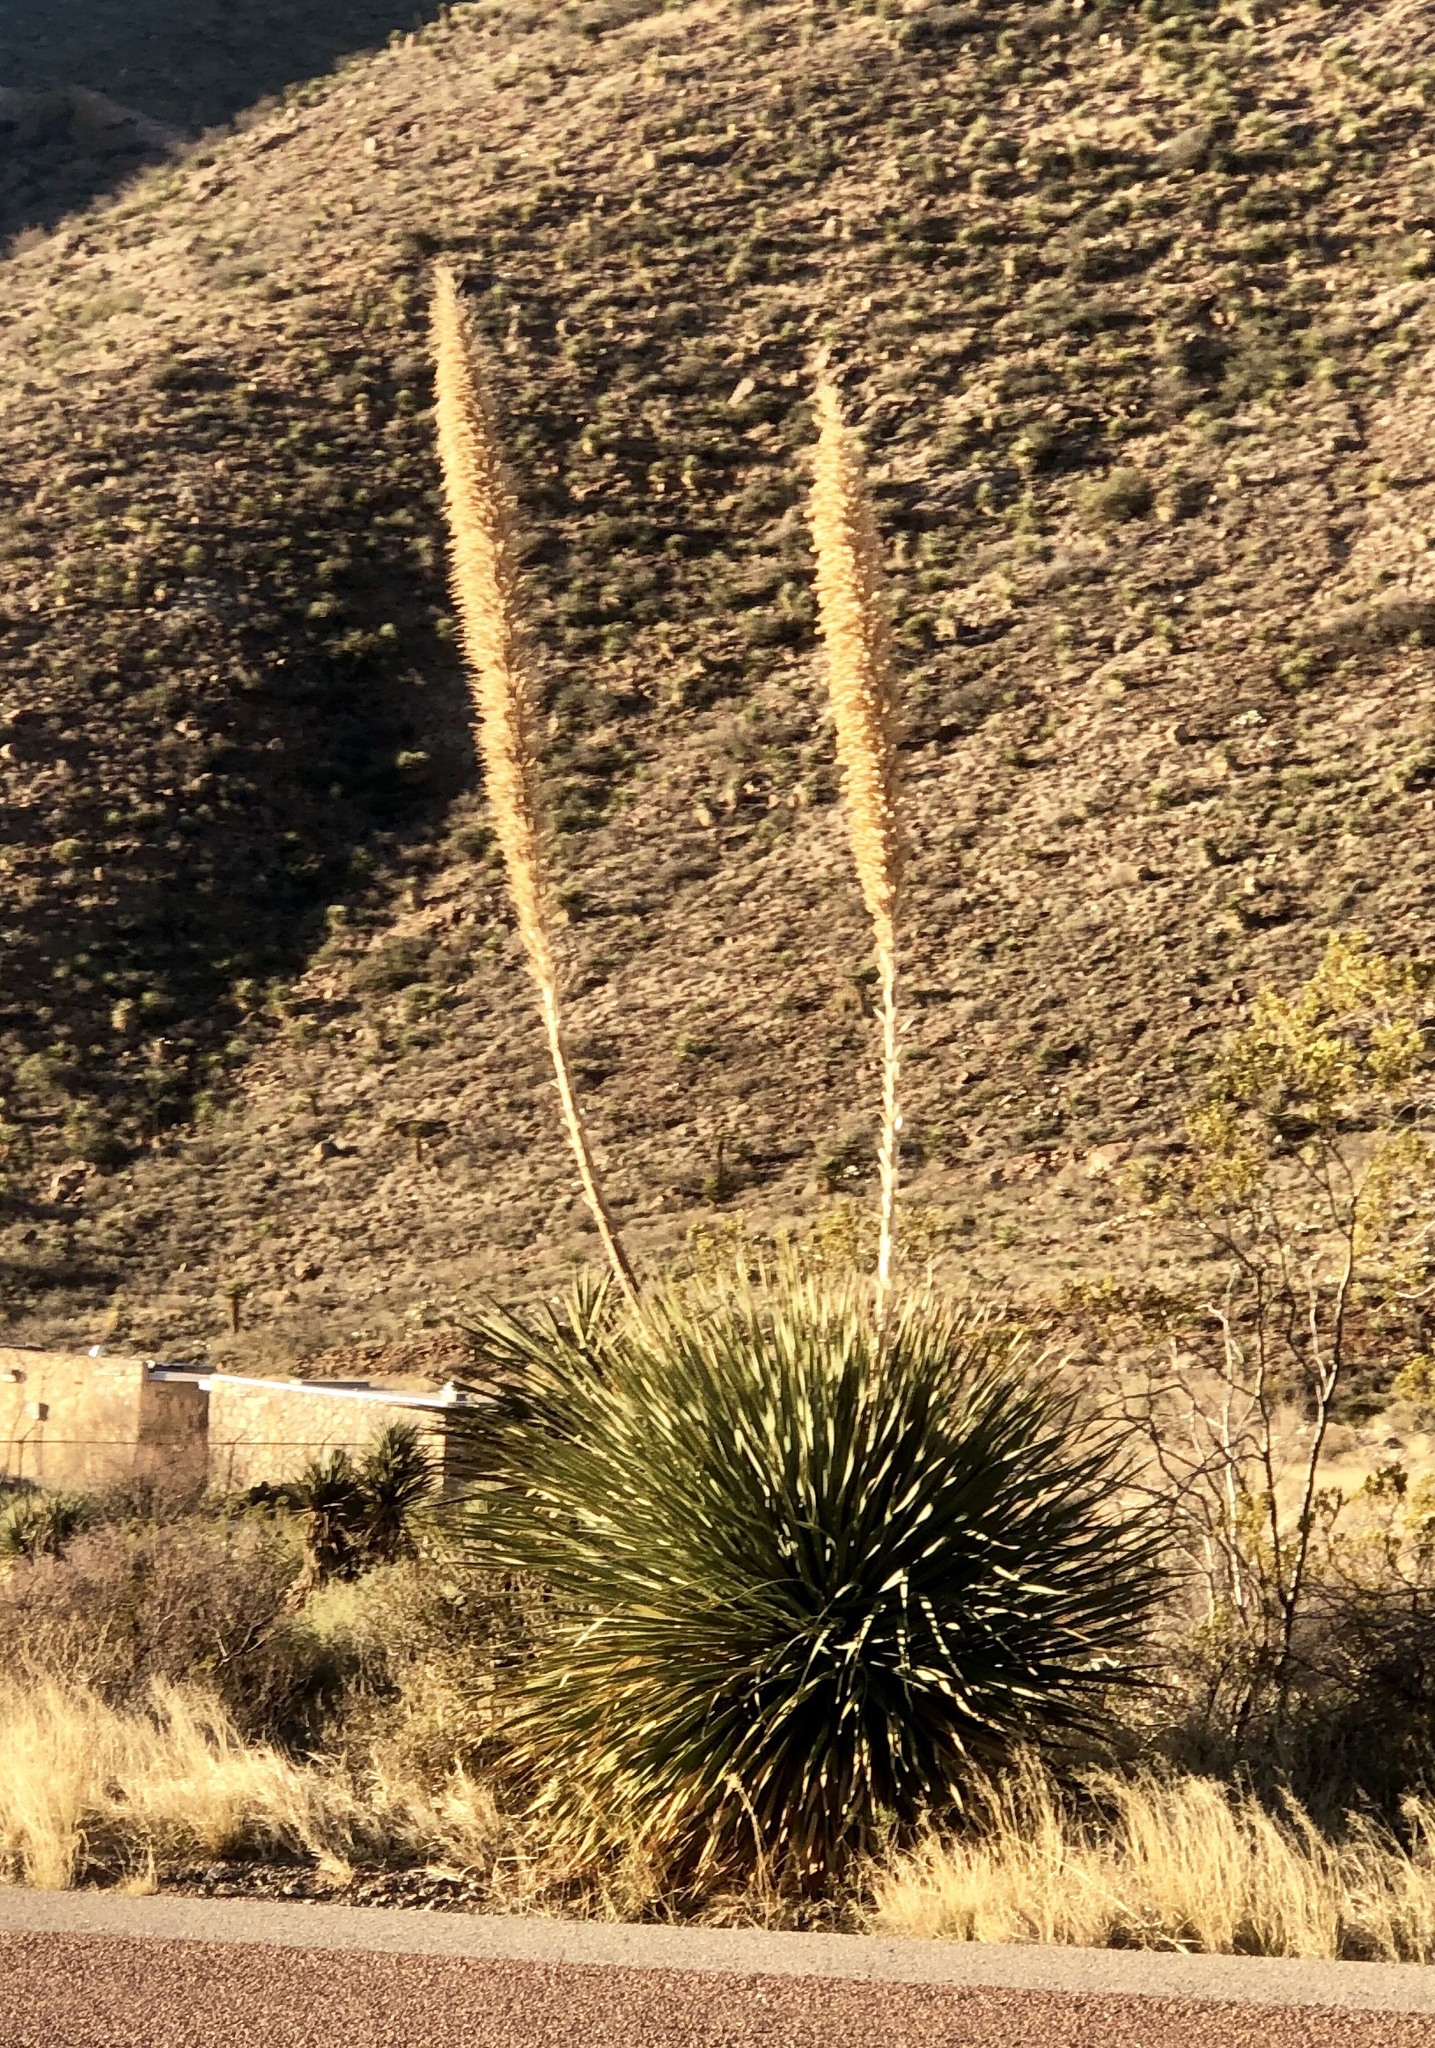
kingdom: Plantae
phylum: Tracheophyta
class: Liliopsida
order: Asparagales
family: Asparagaceae
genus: Dasylirion
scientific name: Dasylirion wheeleri
